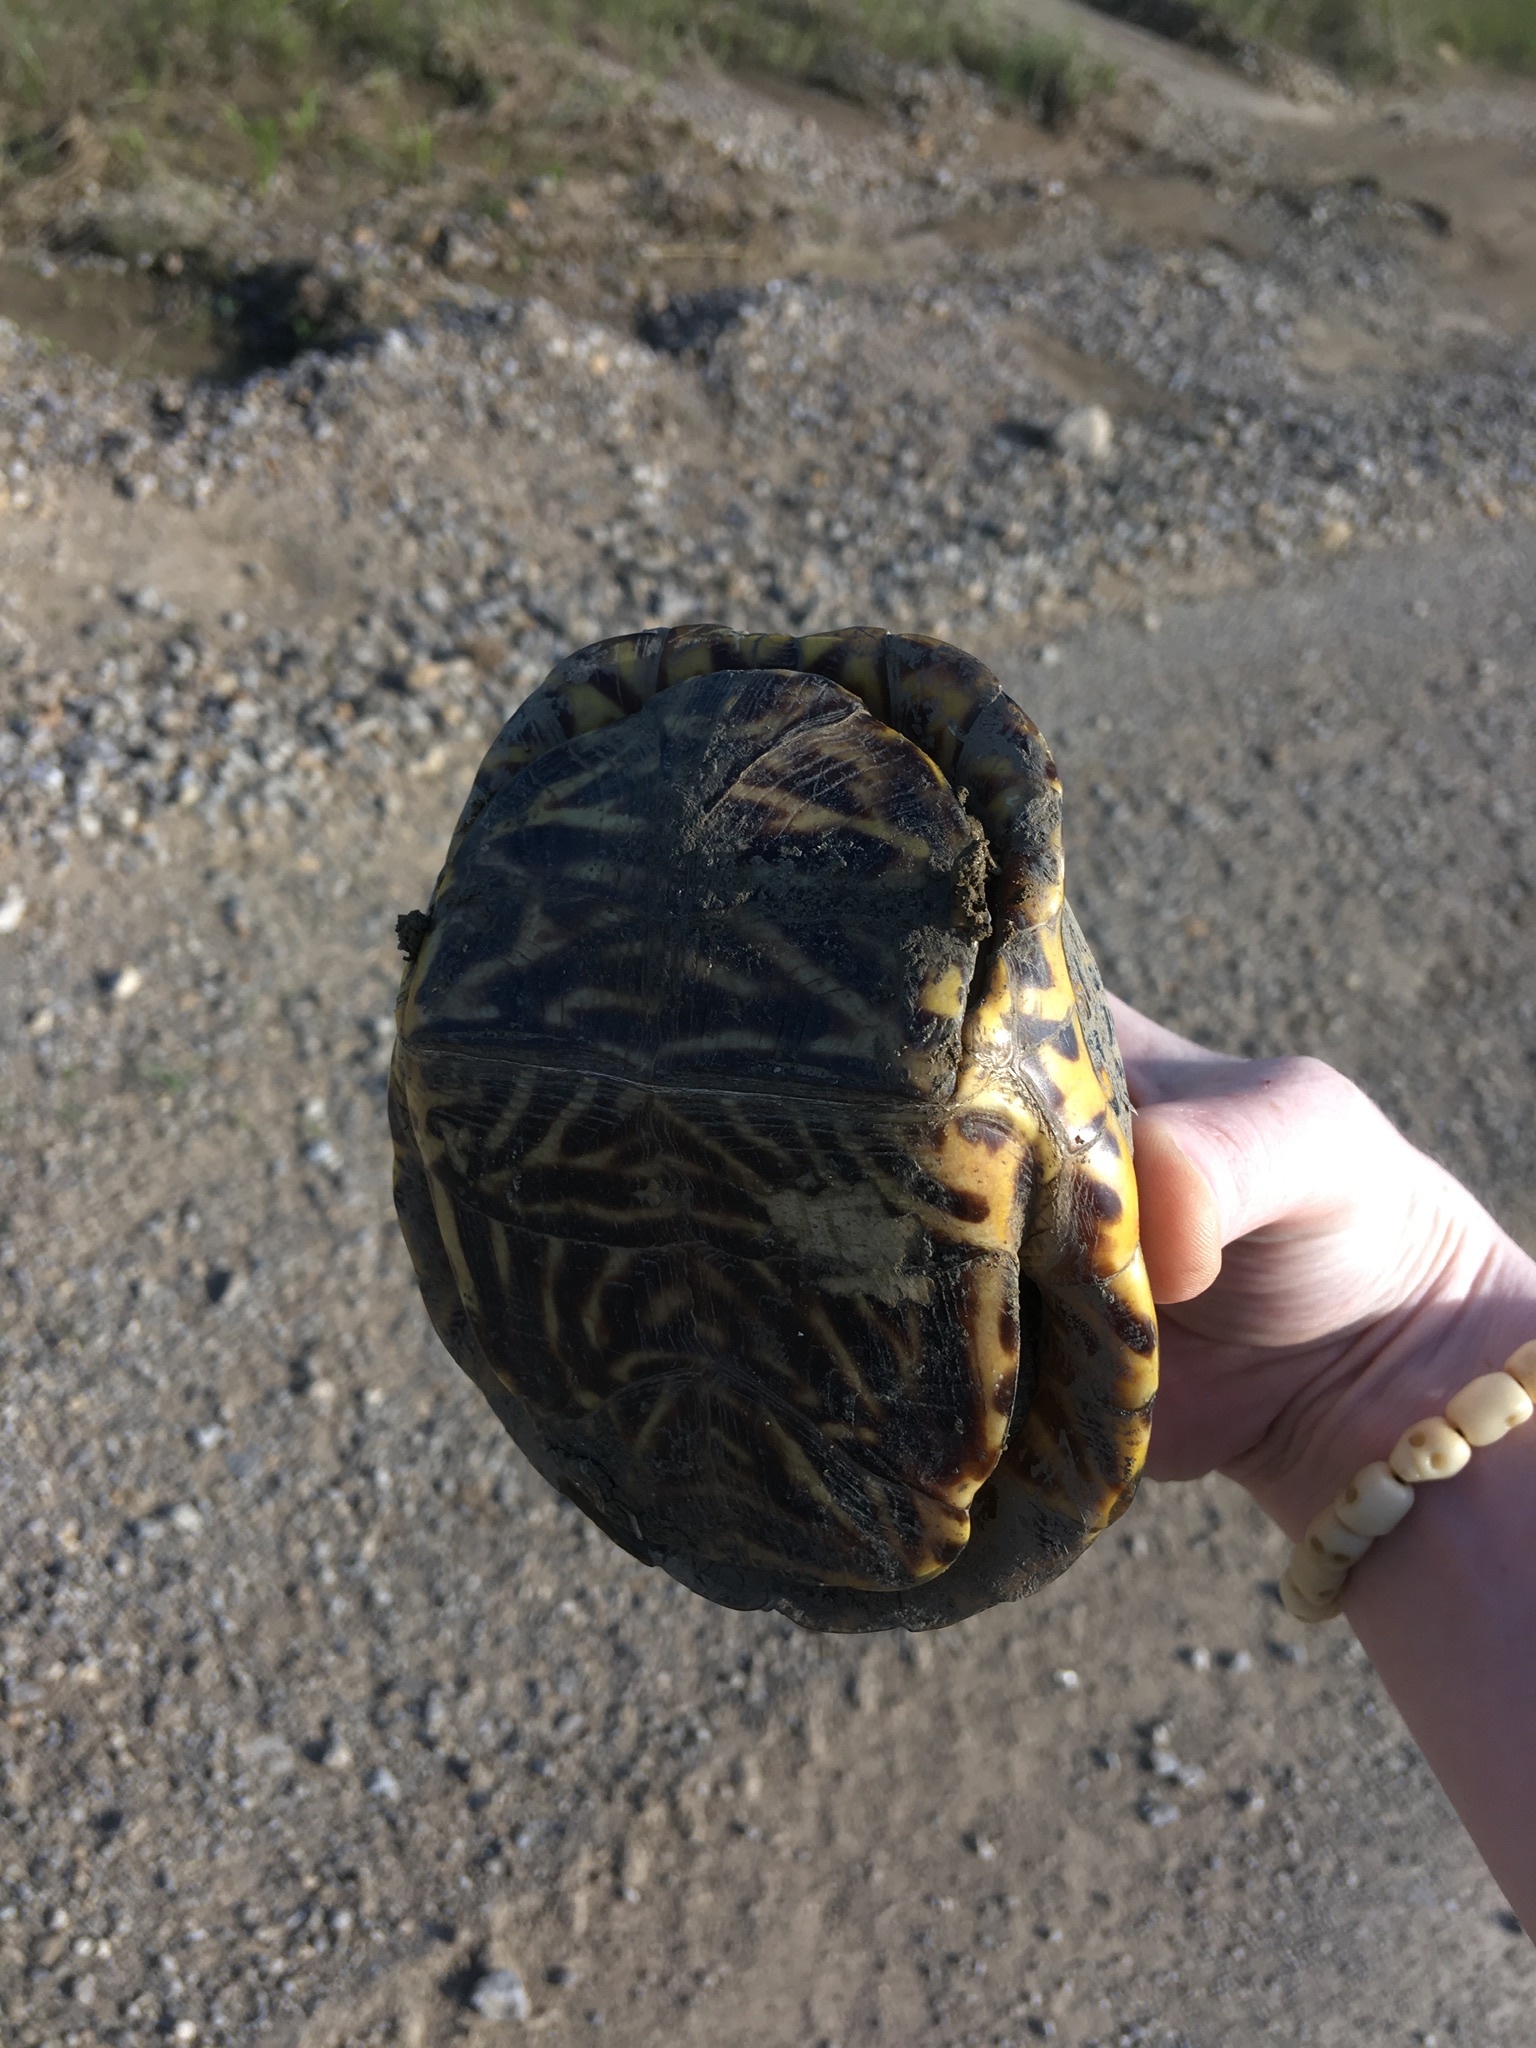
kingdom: Animalia
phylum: Chordata
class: Testudines
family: Emydidae
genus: Terrapene
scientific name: Terrapene ornata
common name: Western box turtle
